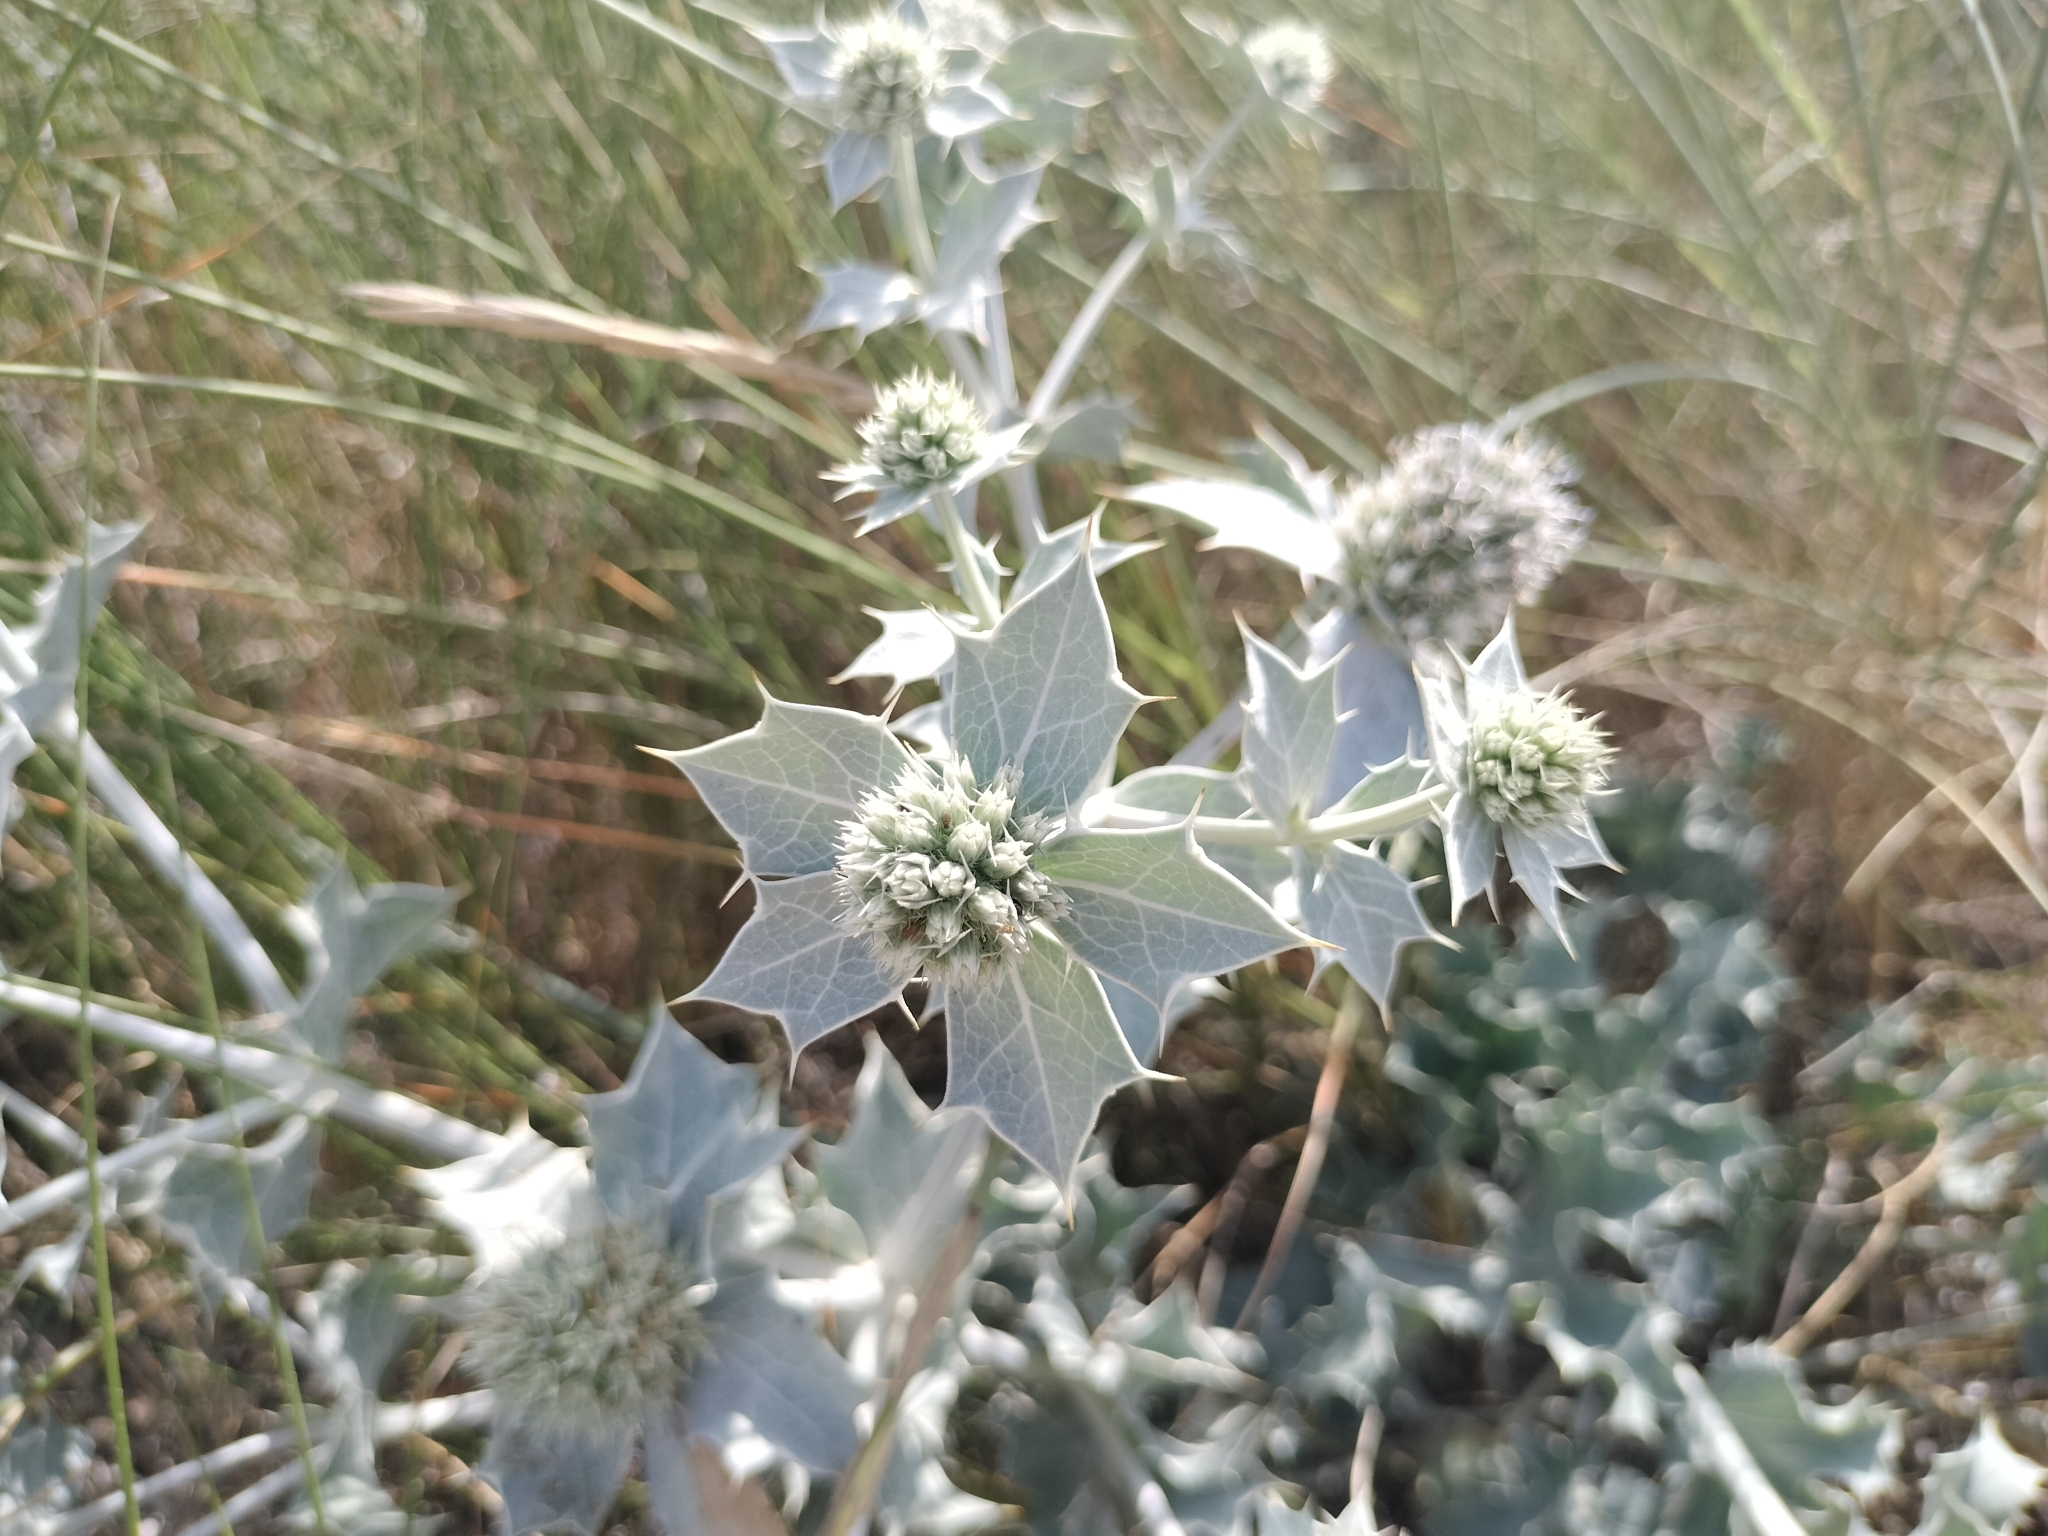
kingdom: Plantae
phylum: Tracheophyta
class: Magnoliopsida
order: Apiales
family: Apiaceae
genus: Eryngium
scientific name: Eryngium maritimum
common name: Sea-holly
